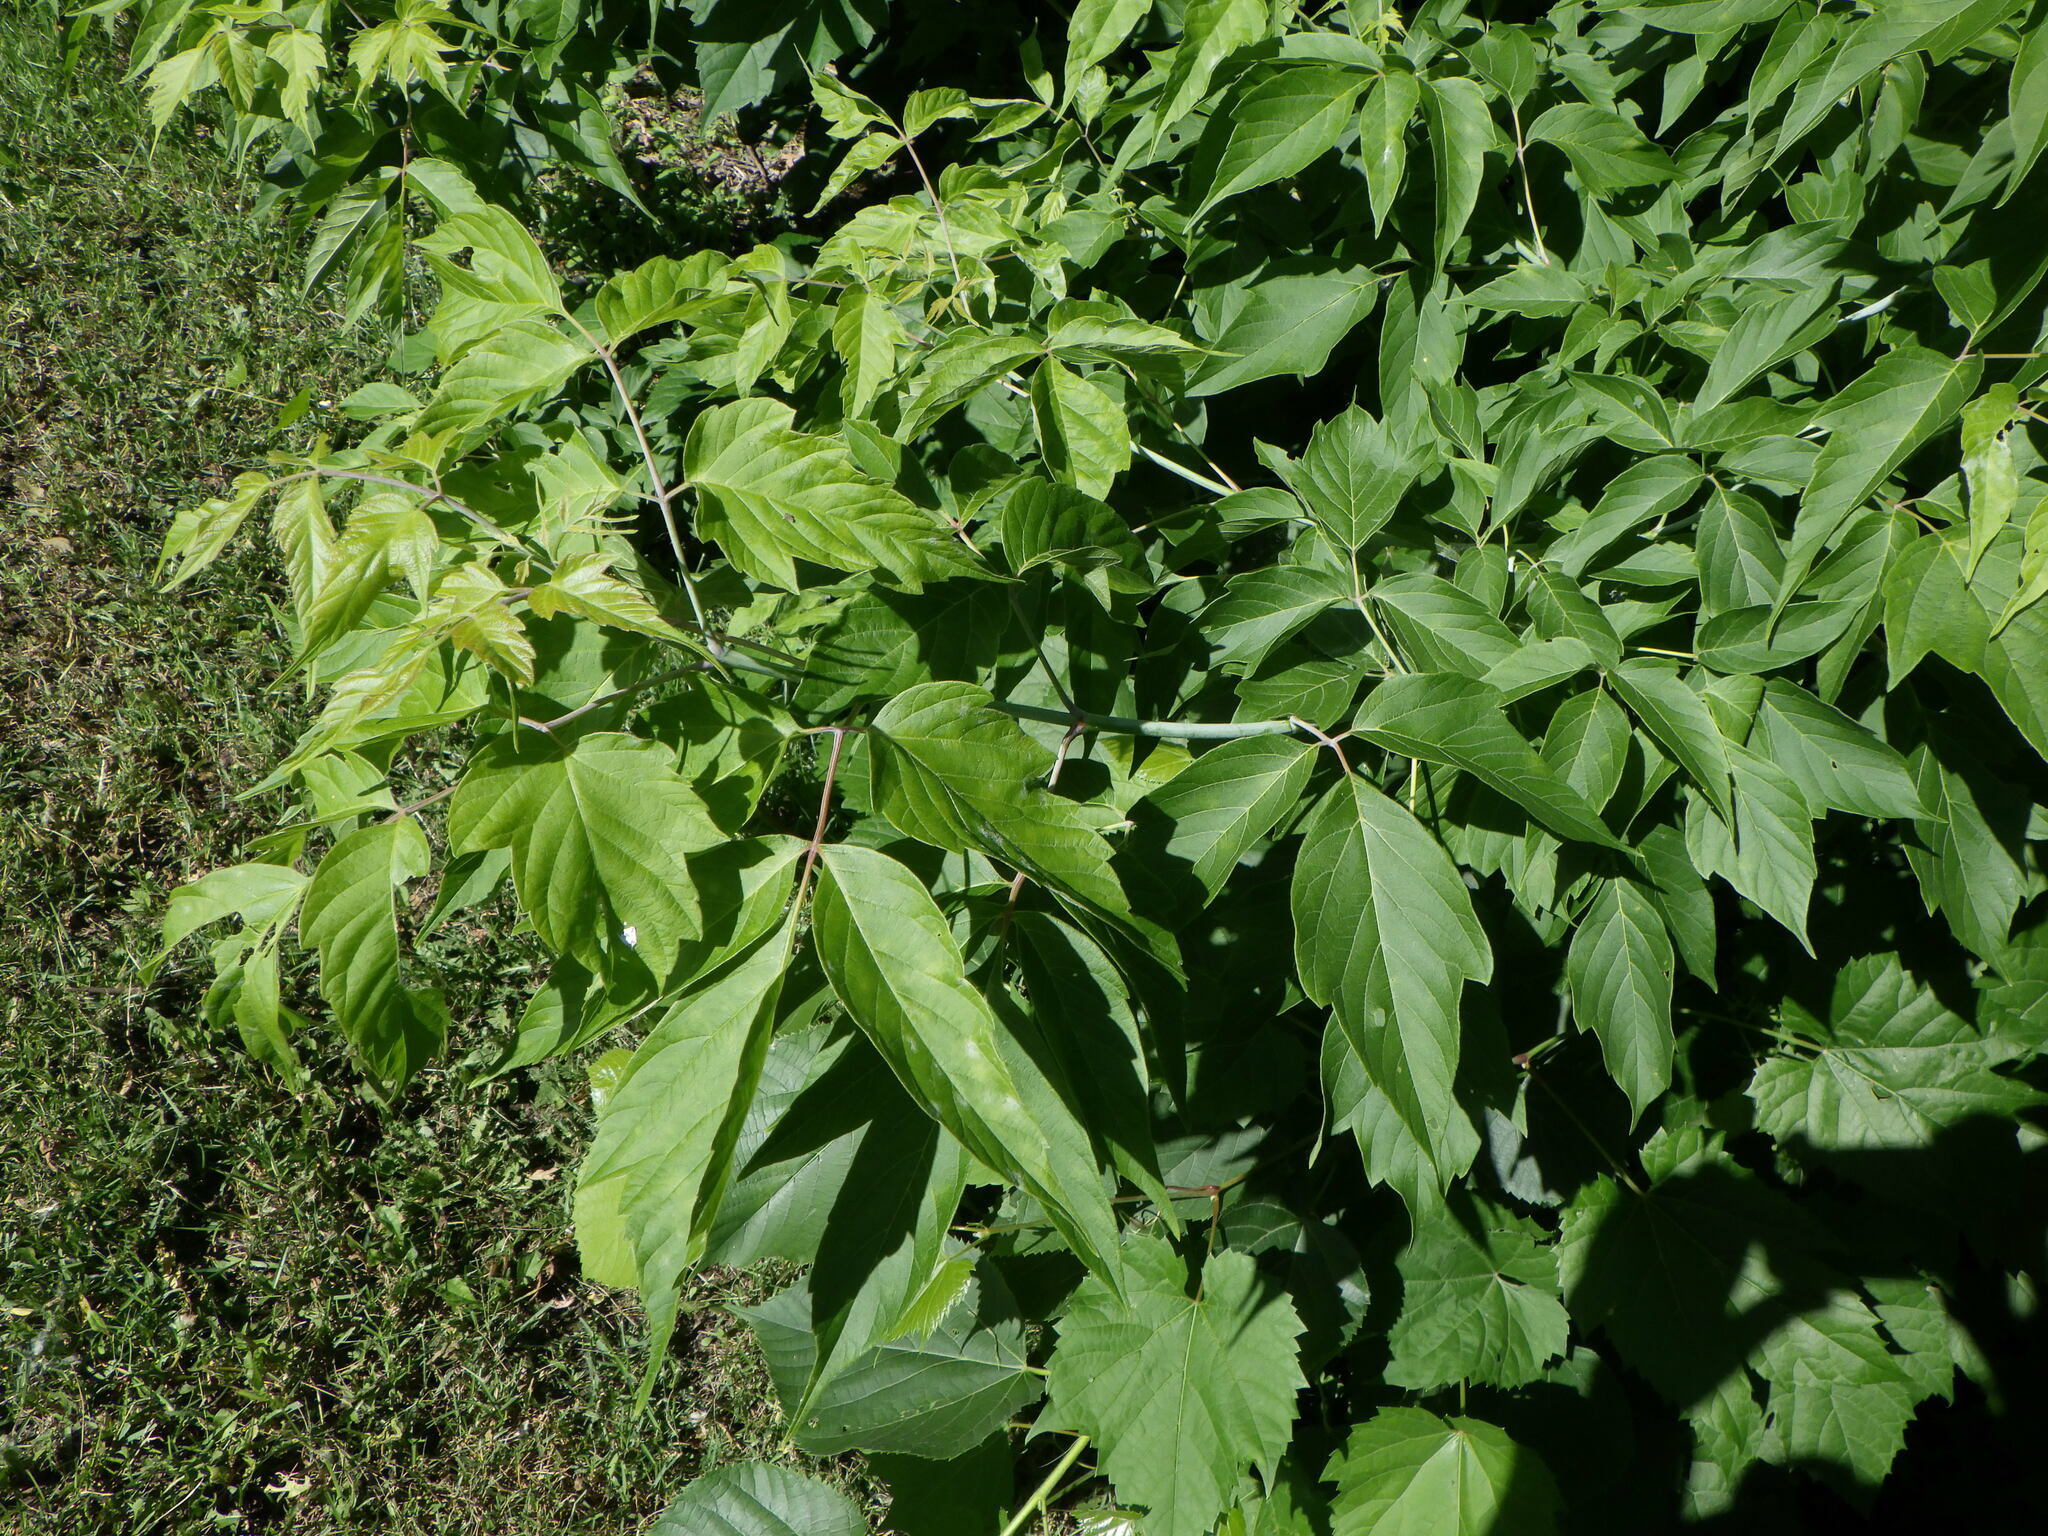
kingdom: Plantae
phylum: Tracheophyta
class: Magnoliopsida
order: Sapindales
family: Sapindaceae
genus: Acer
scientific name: Acer negundo
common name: Ashleaf maple
